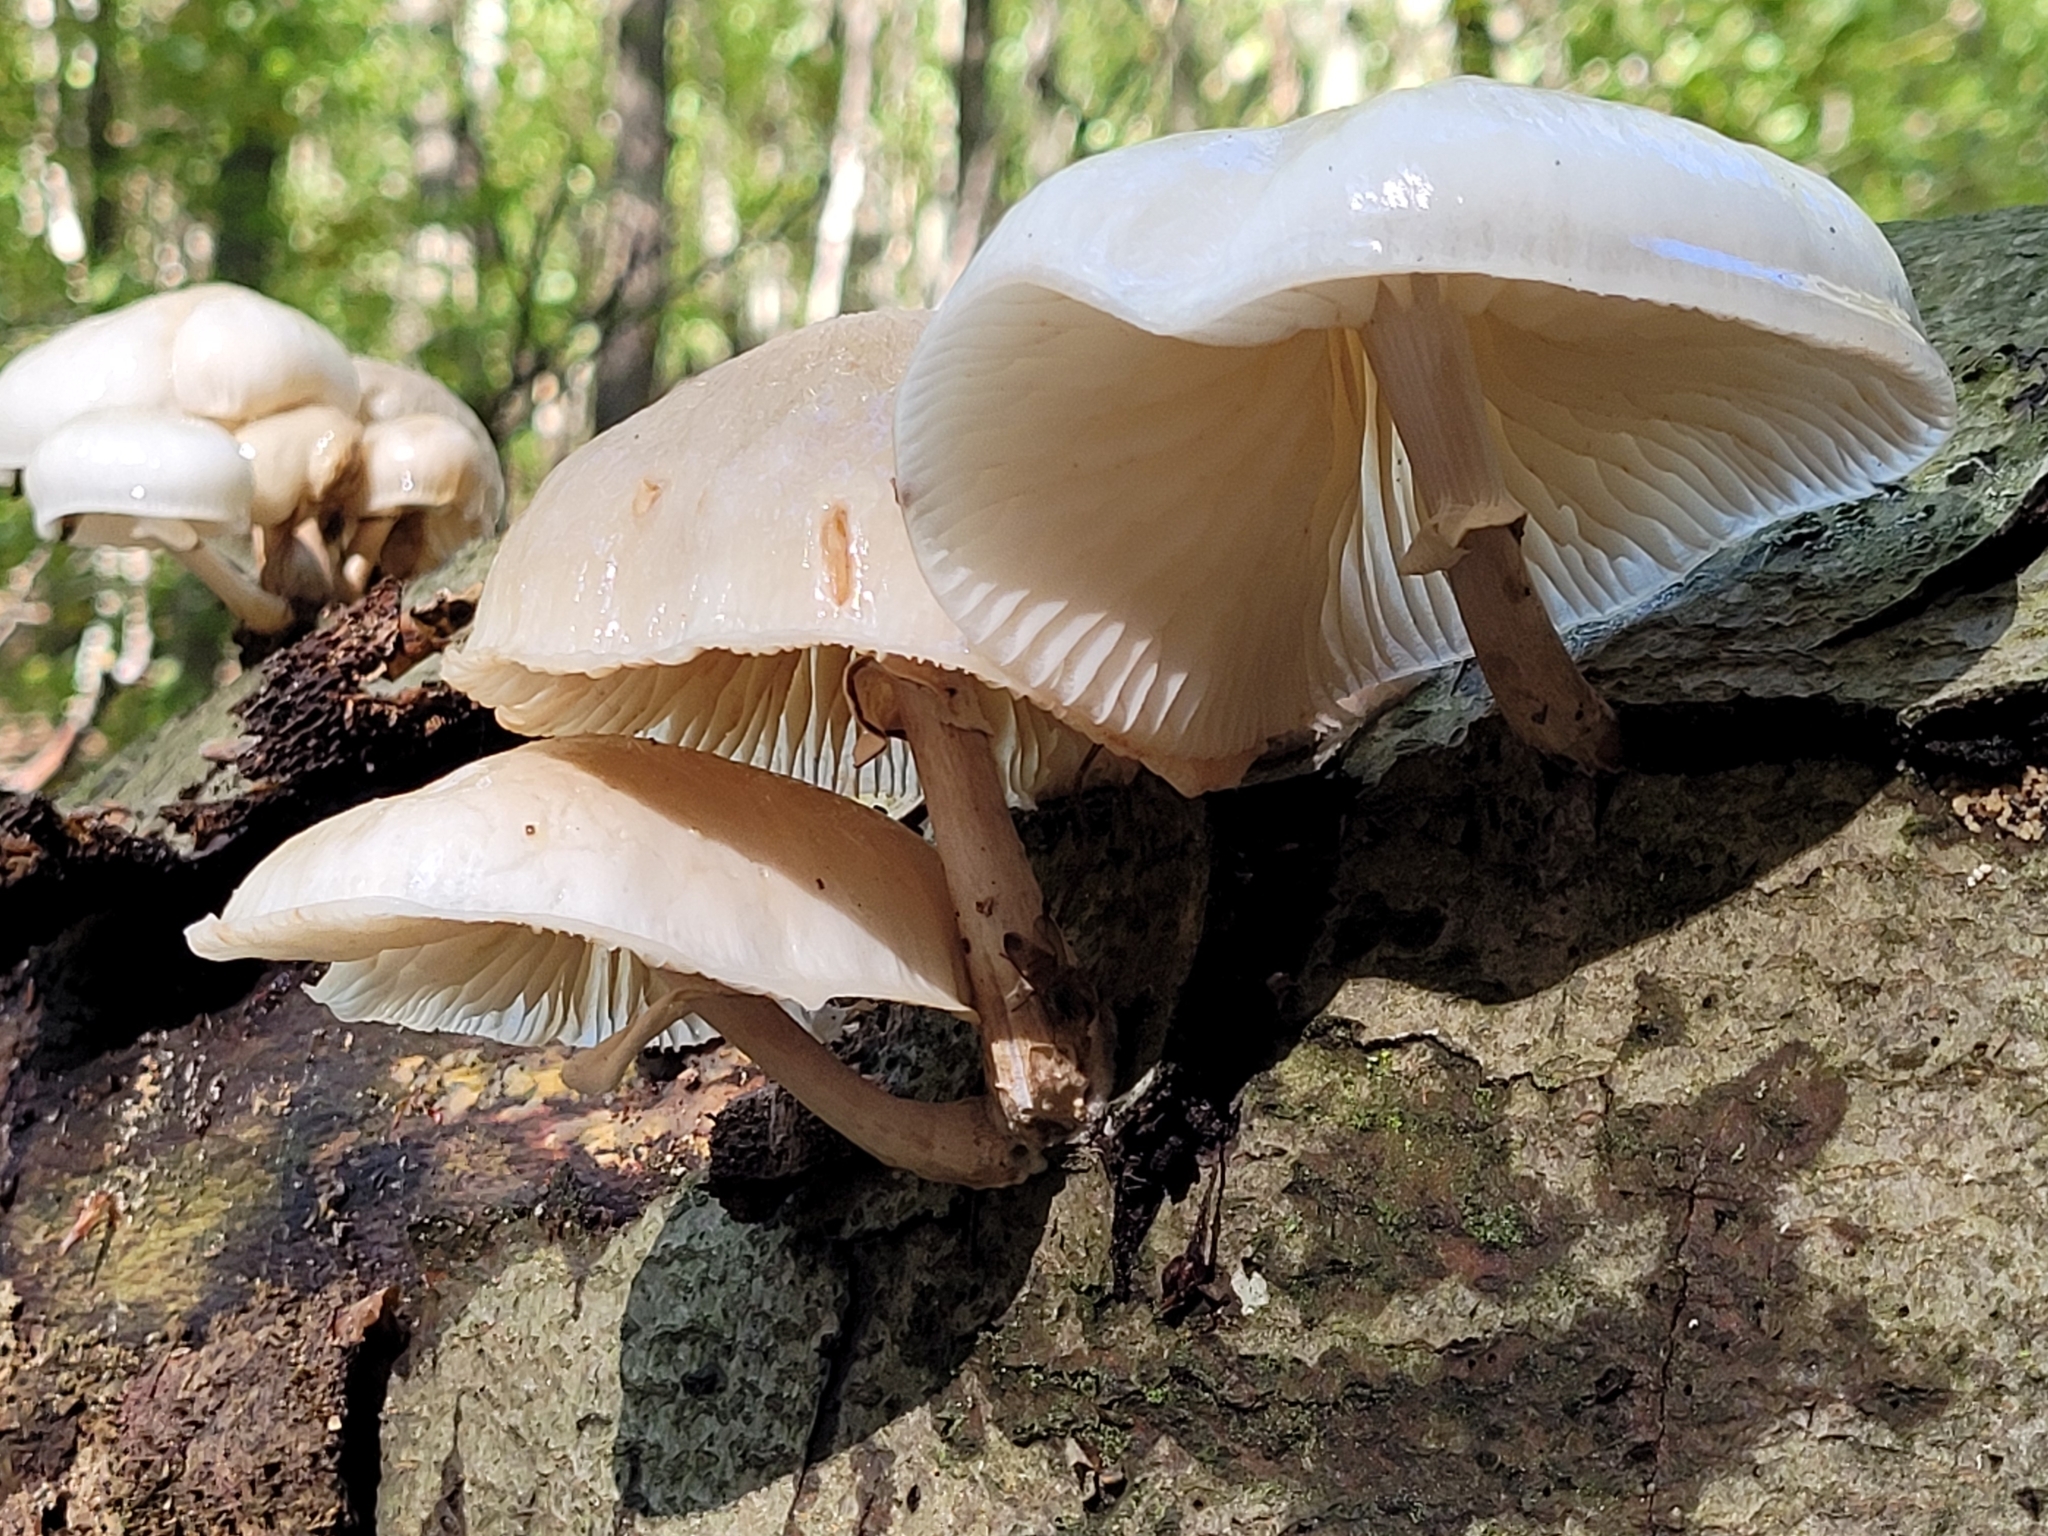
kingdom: Fungi
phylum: Basidiomycota
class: Agaricomycetes
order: Agaricales
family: Physalacriaceae
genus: Mucidula
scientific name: Mucidula mucida
